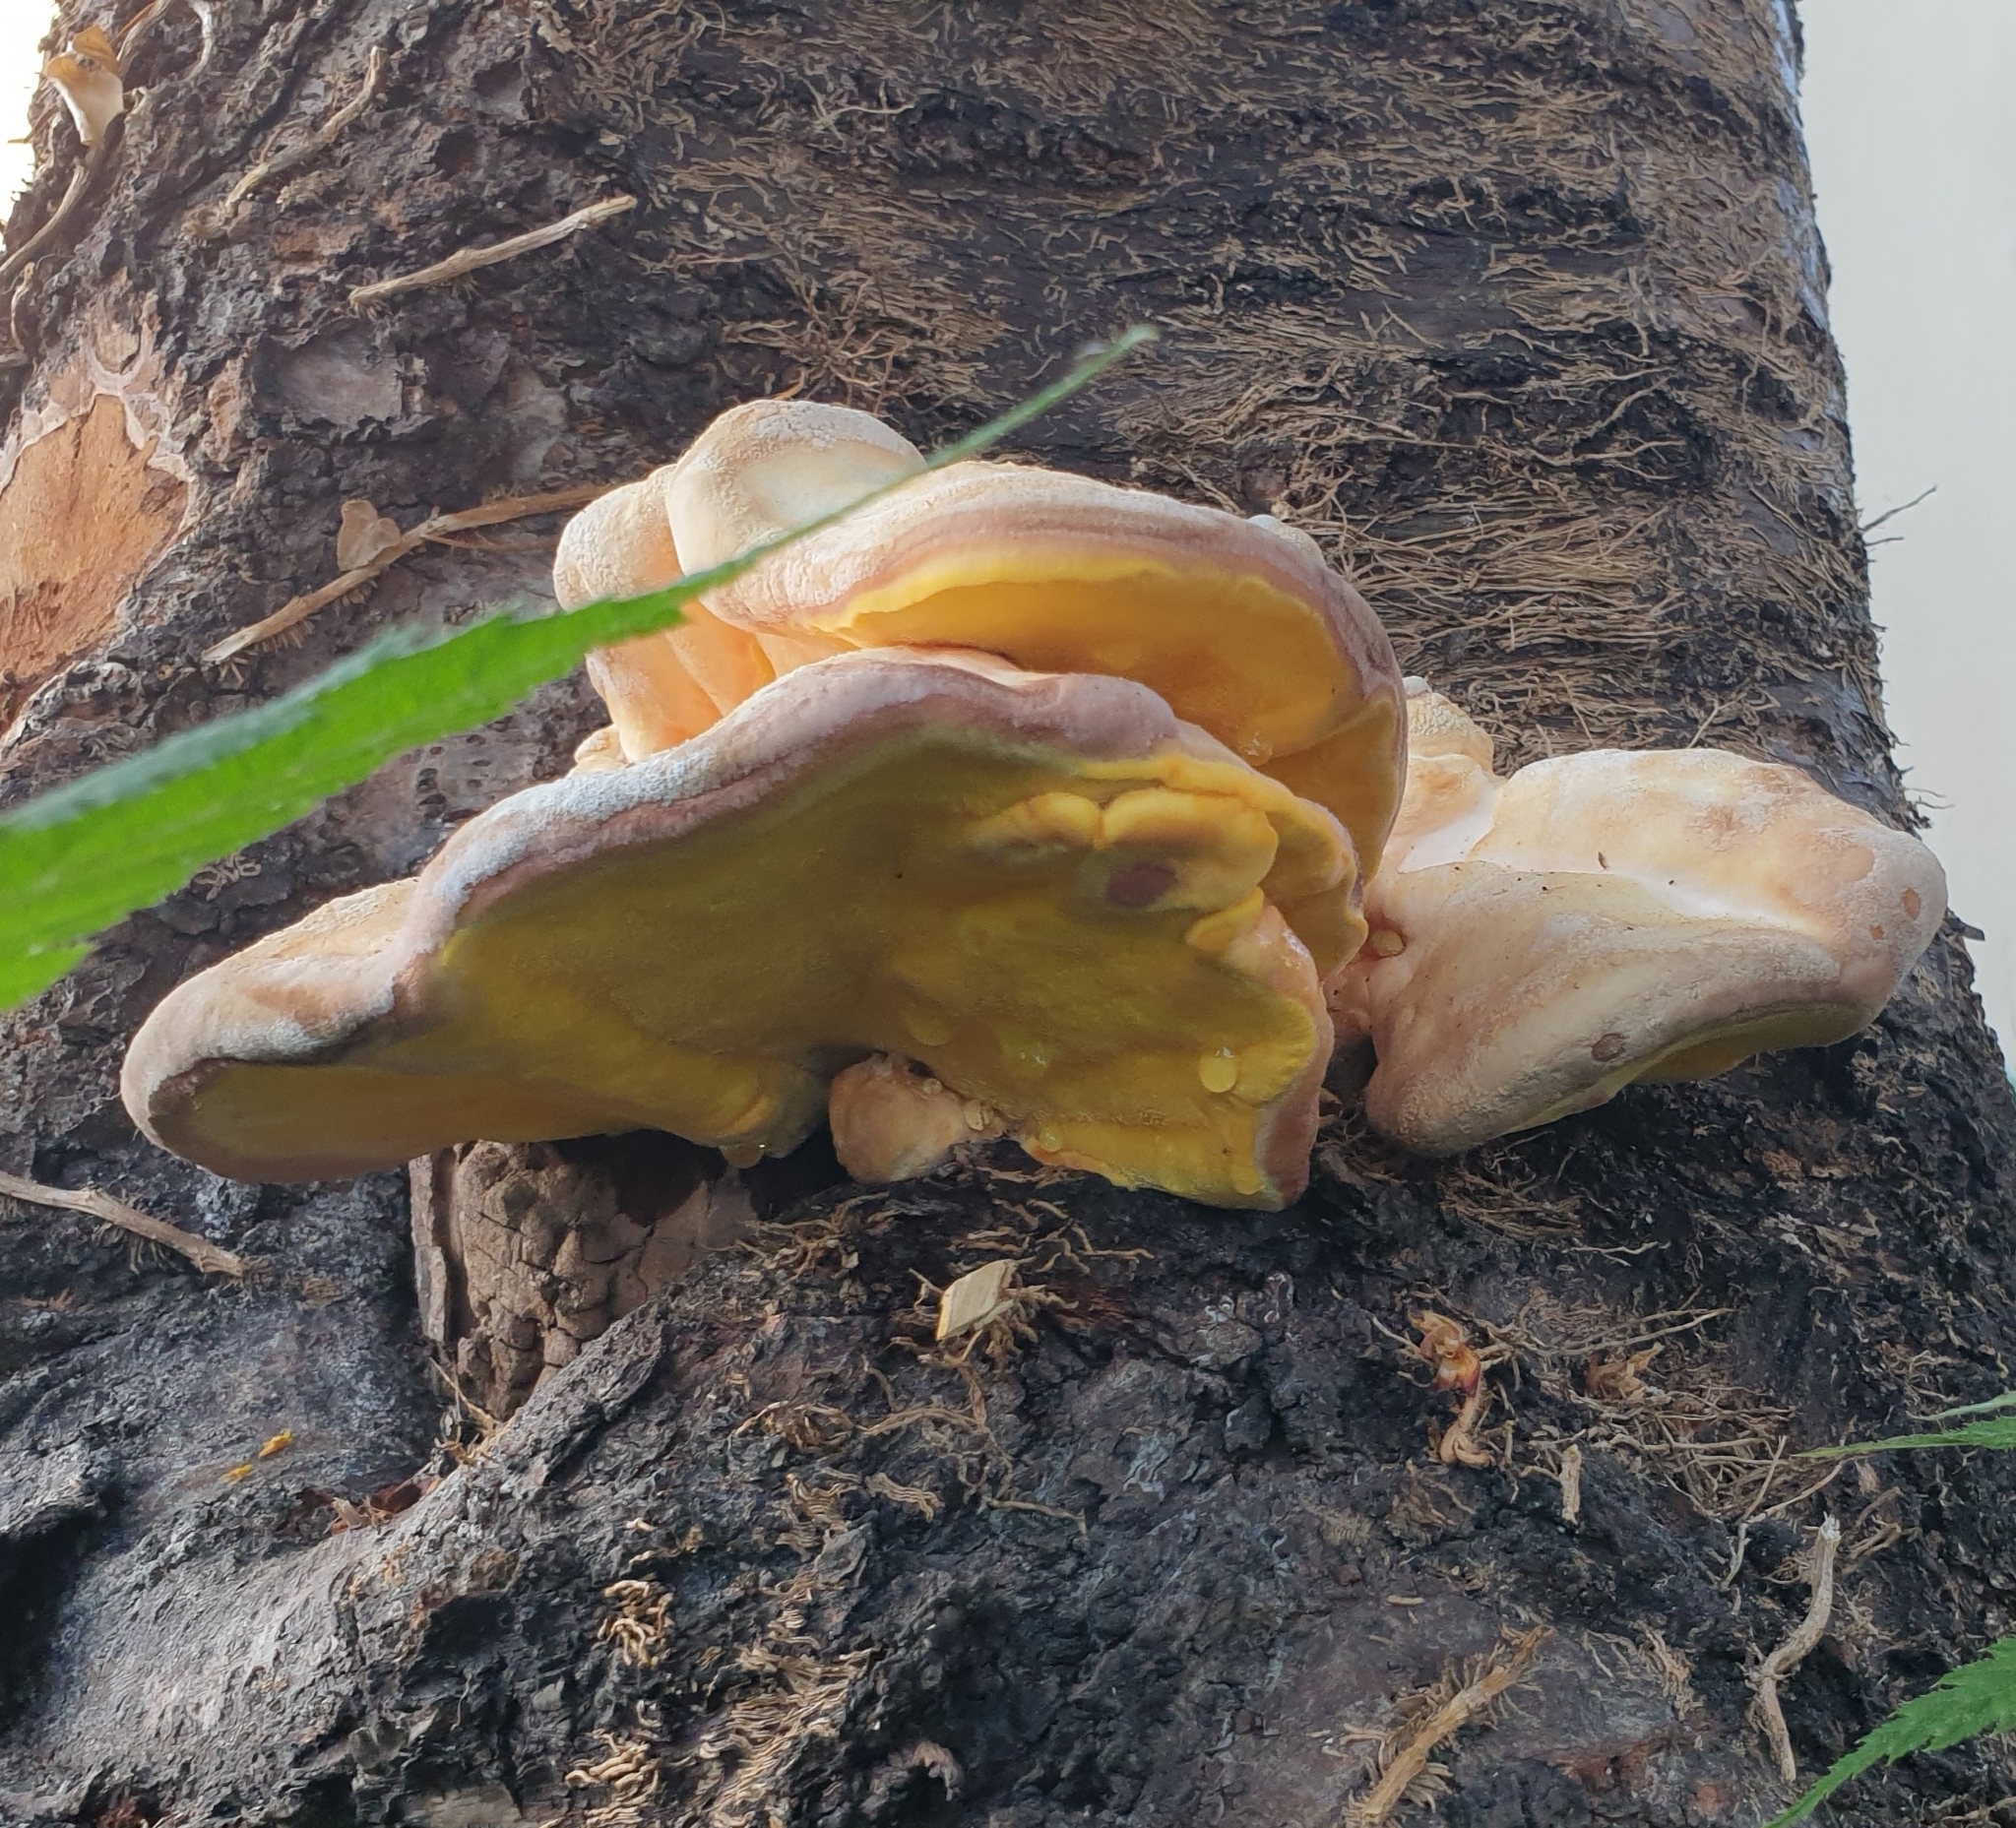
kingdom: Fungi
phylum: Basidiomycota
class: Agaricomycetes
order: Polyporales
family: Laetiporaceae
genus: Laetiporus
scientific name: Laetiporus sulphureus
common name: Chicken of the woods
